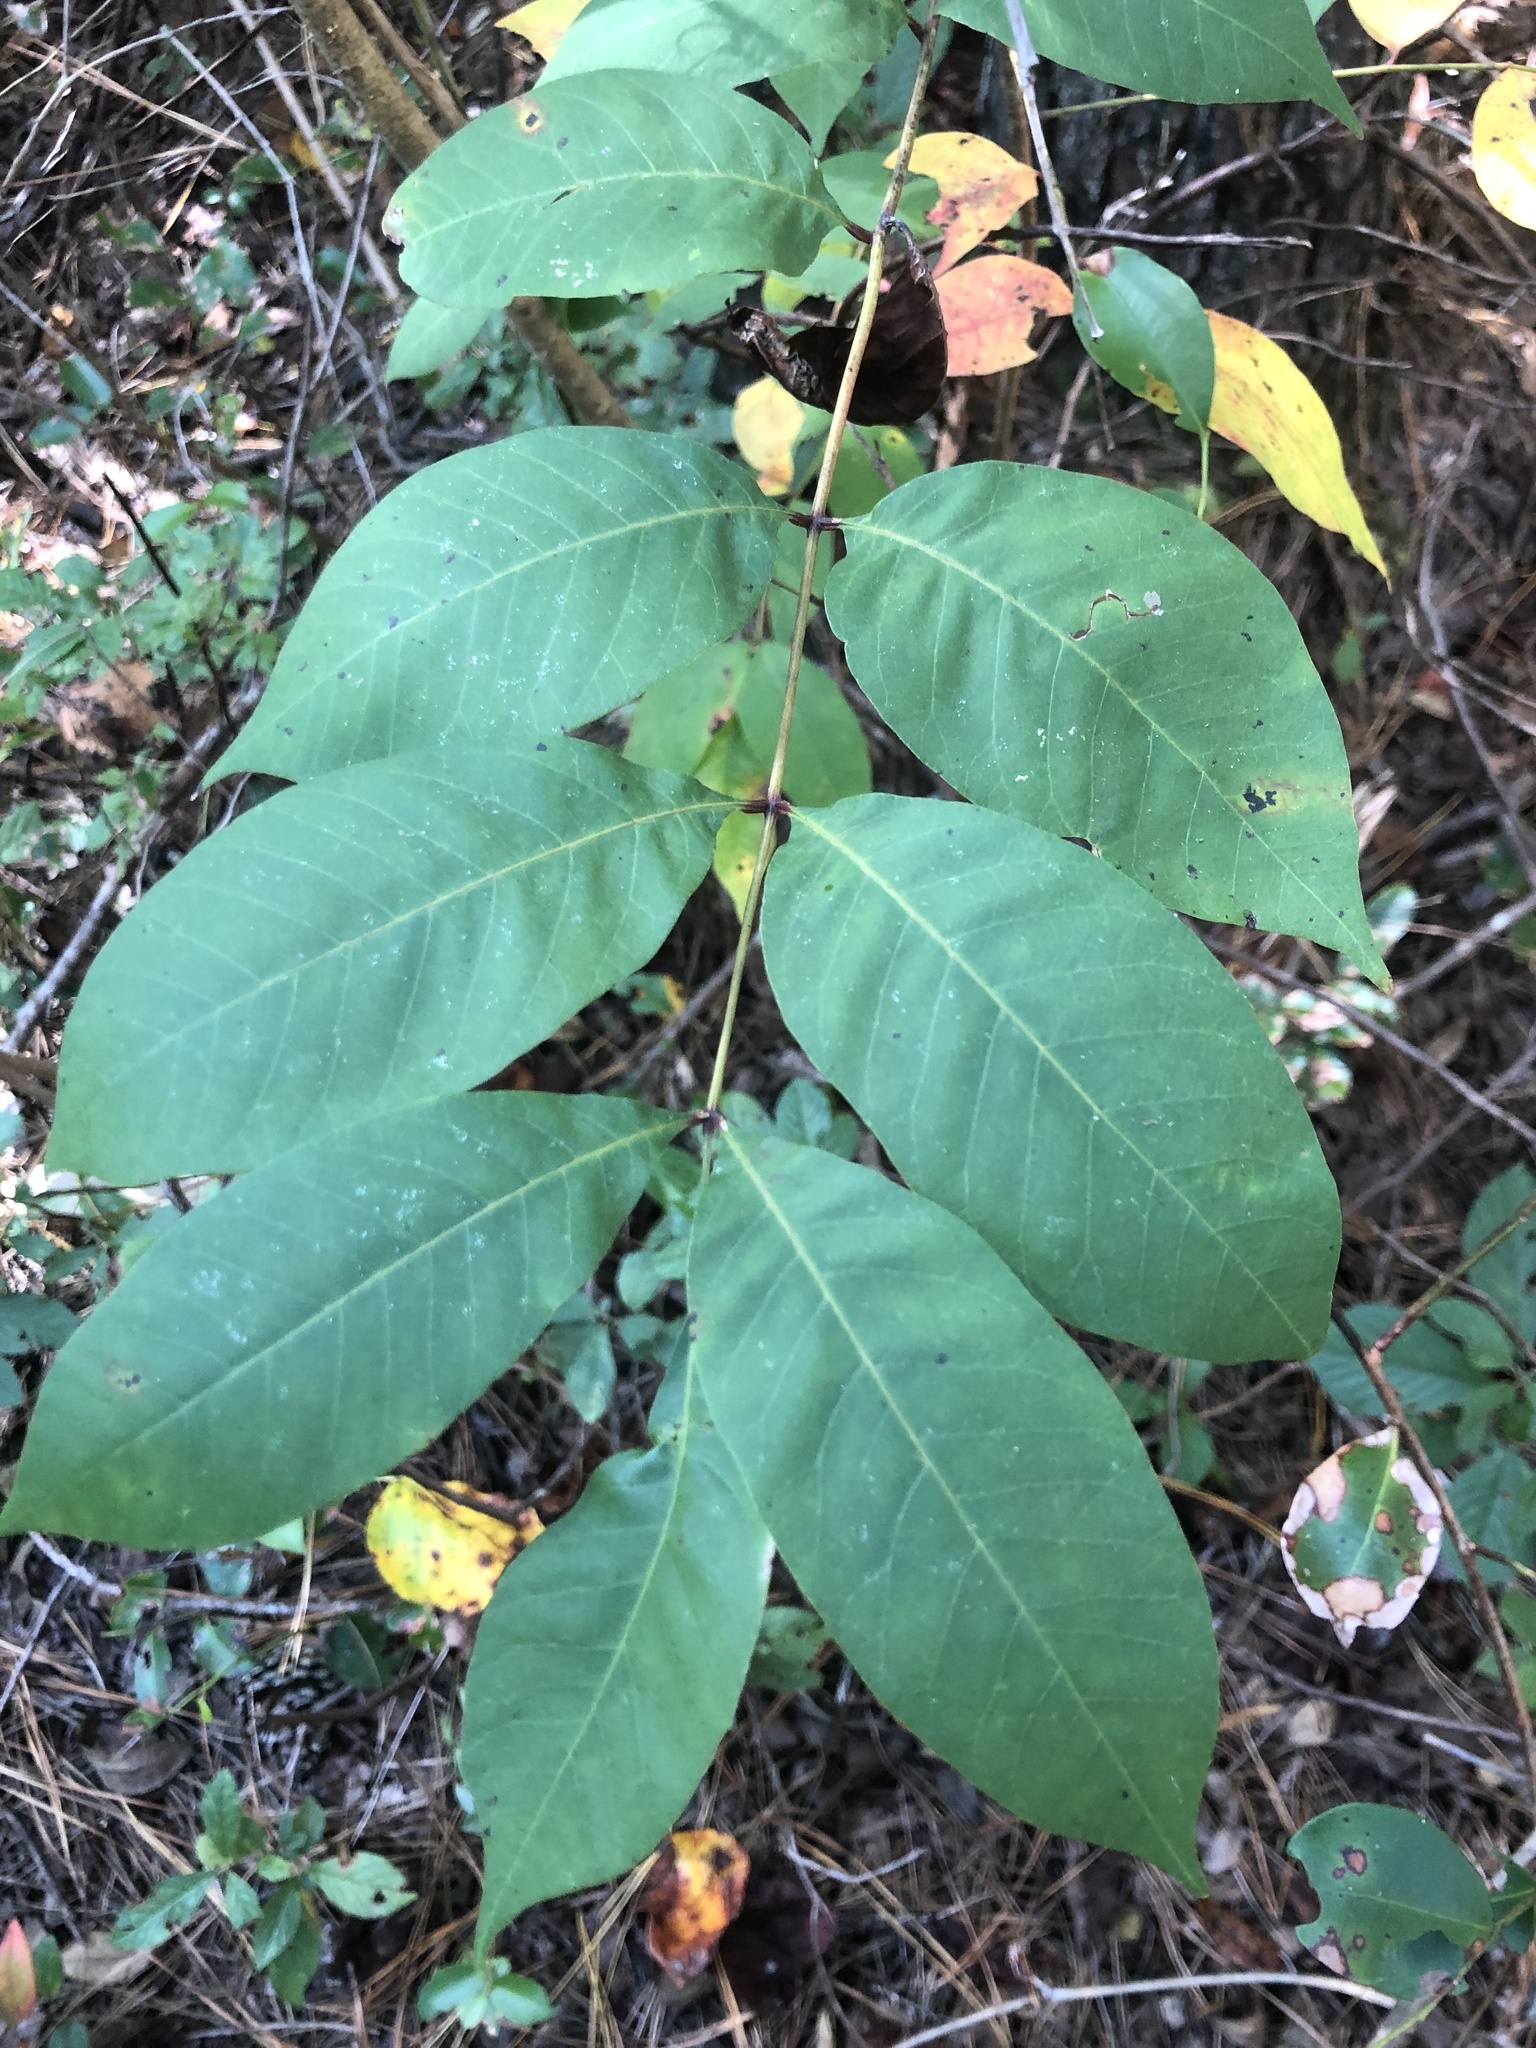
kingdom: Plantae
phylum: Tracheophyta
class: Magnoliopsida
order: Sapindales
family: Anacardiaceae
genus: Toxicodendron
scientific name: Toxicodendron vernix
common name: Poison sumac
